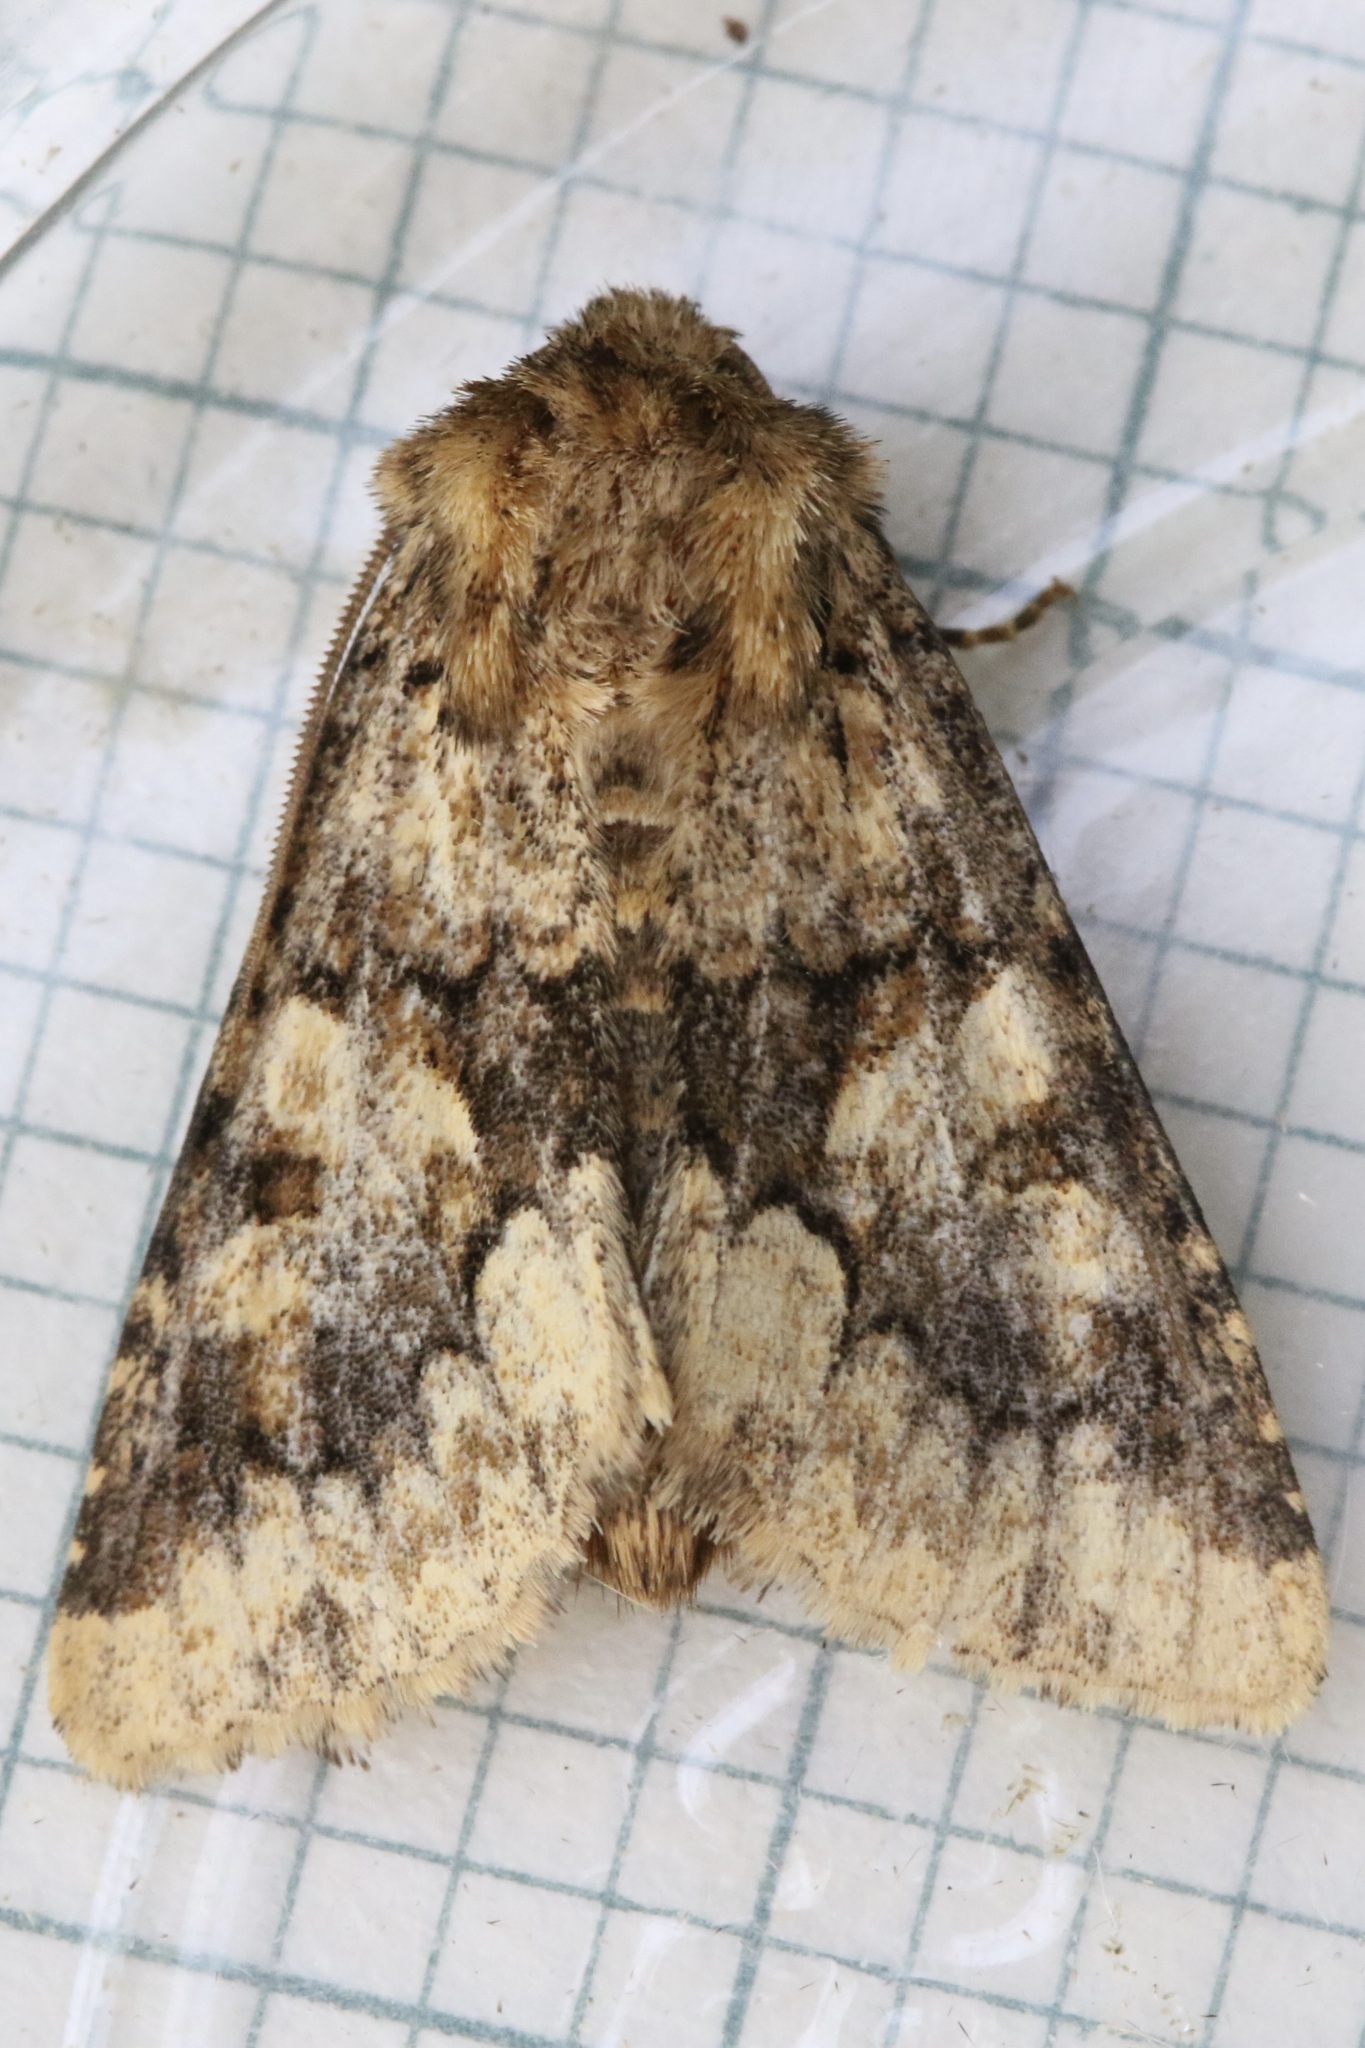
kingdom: Animalia
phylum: Arthropoda
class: Insecta
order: Lepidoptera
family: Noctuidae
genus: Conisania
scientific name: Conisania luteago
